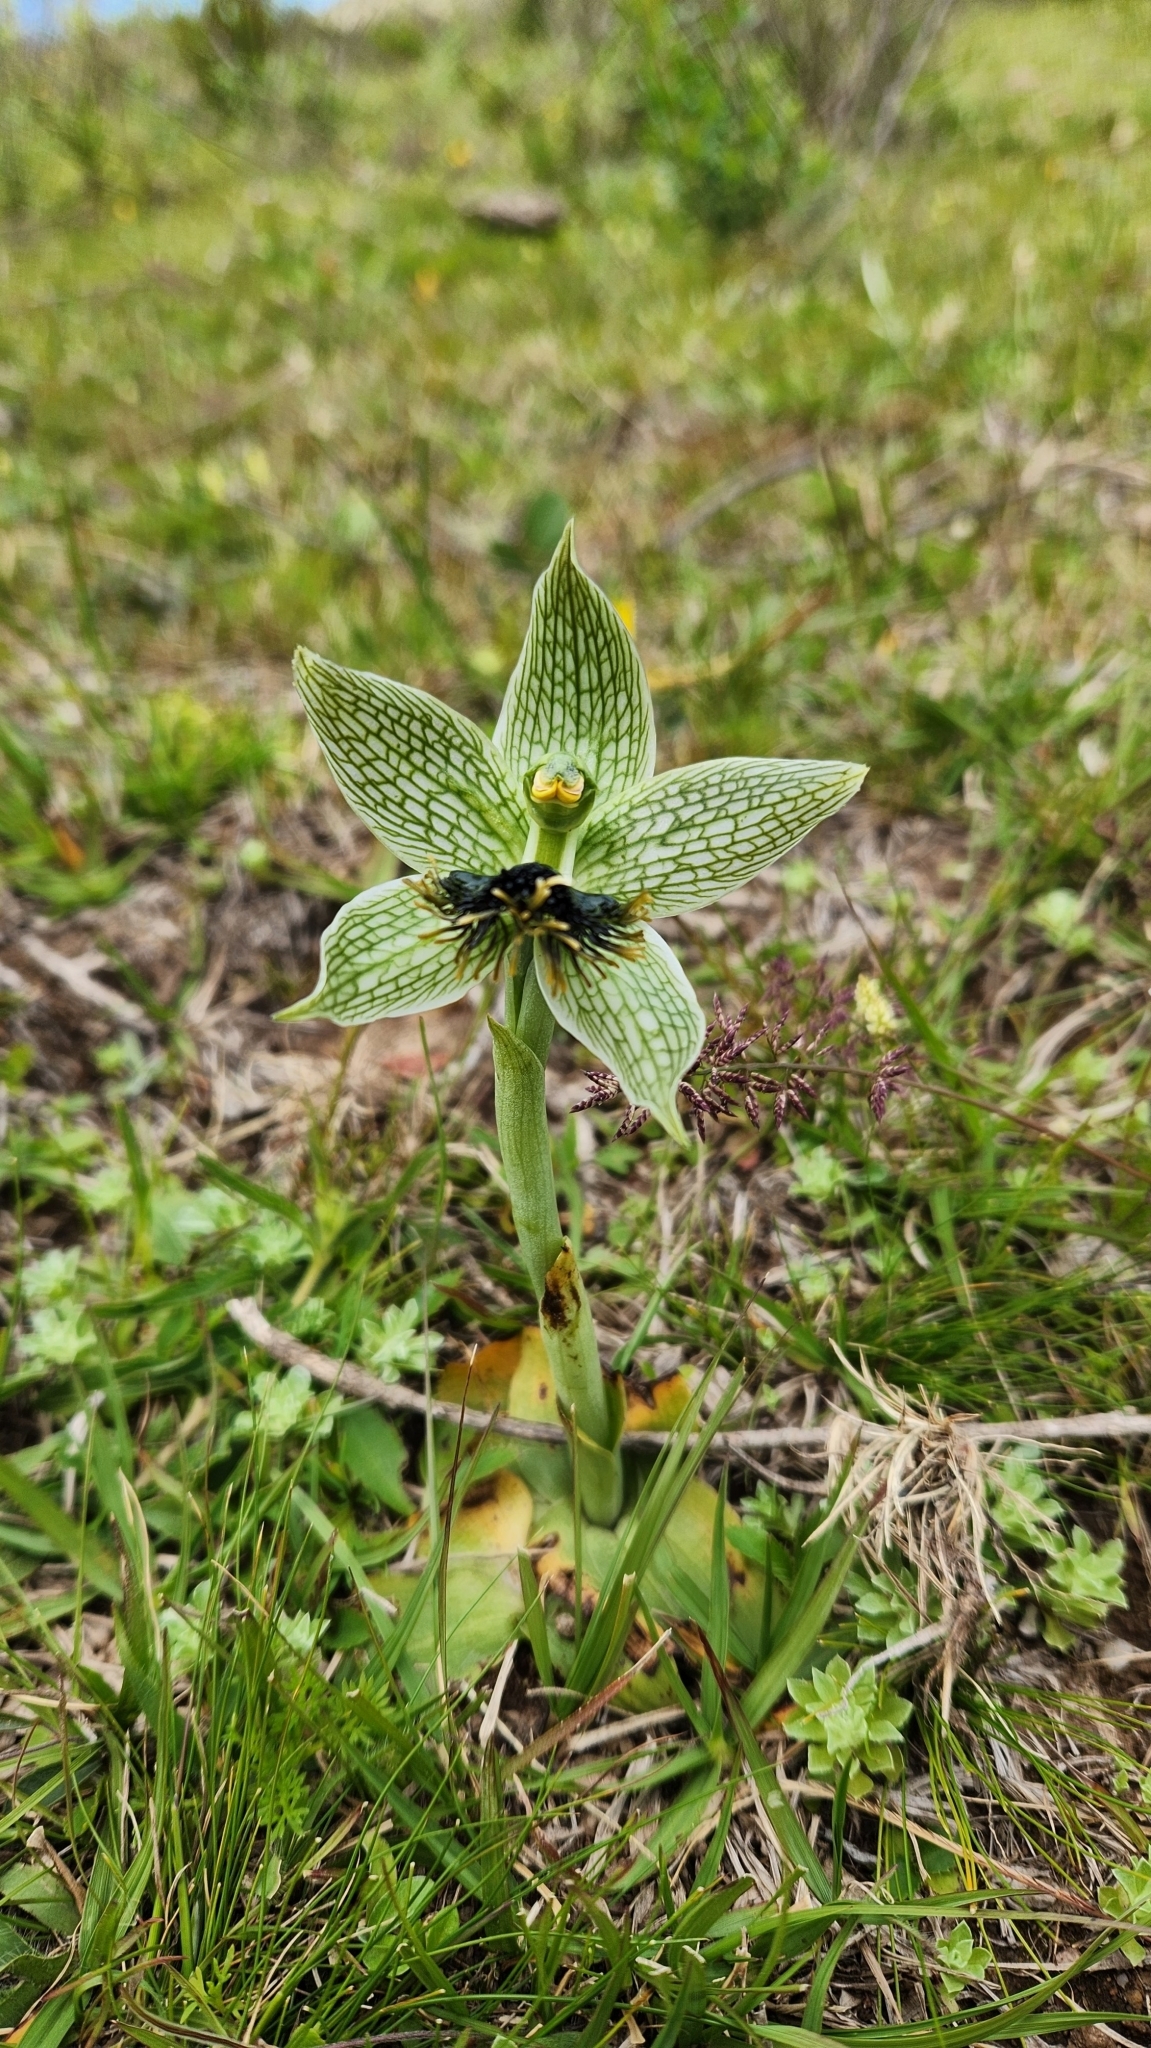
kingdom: Plantae
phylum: Tracheophyta
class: Liliopsida
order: Asparagales
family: Orchidaceae
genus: Bipinnula
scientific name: Bipinnula penicillata
